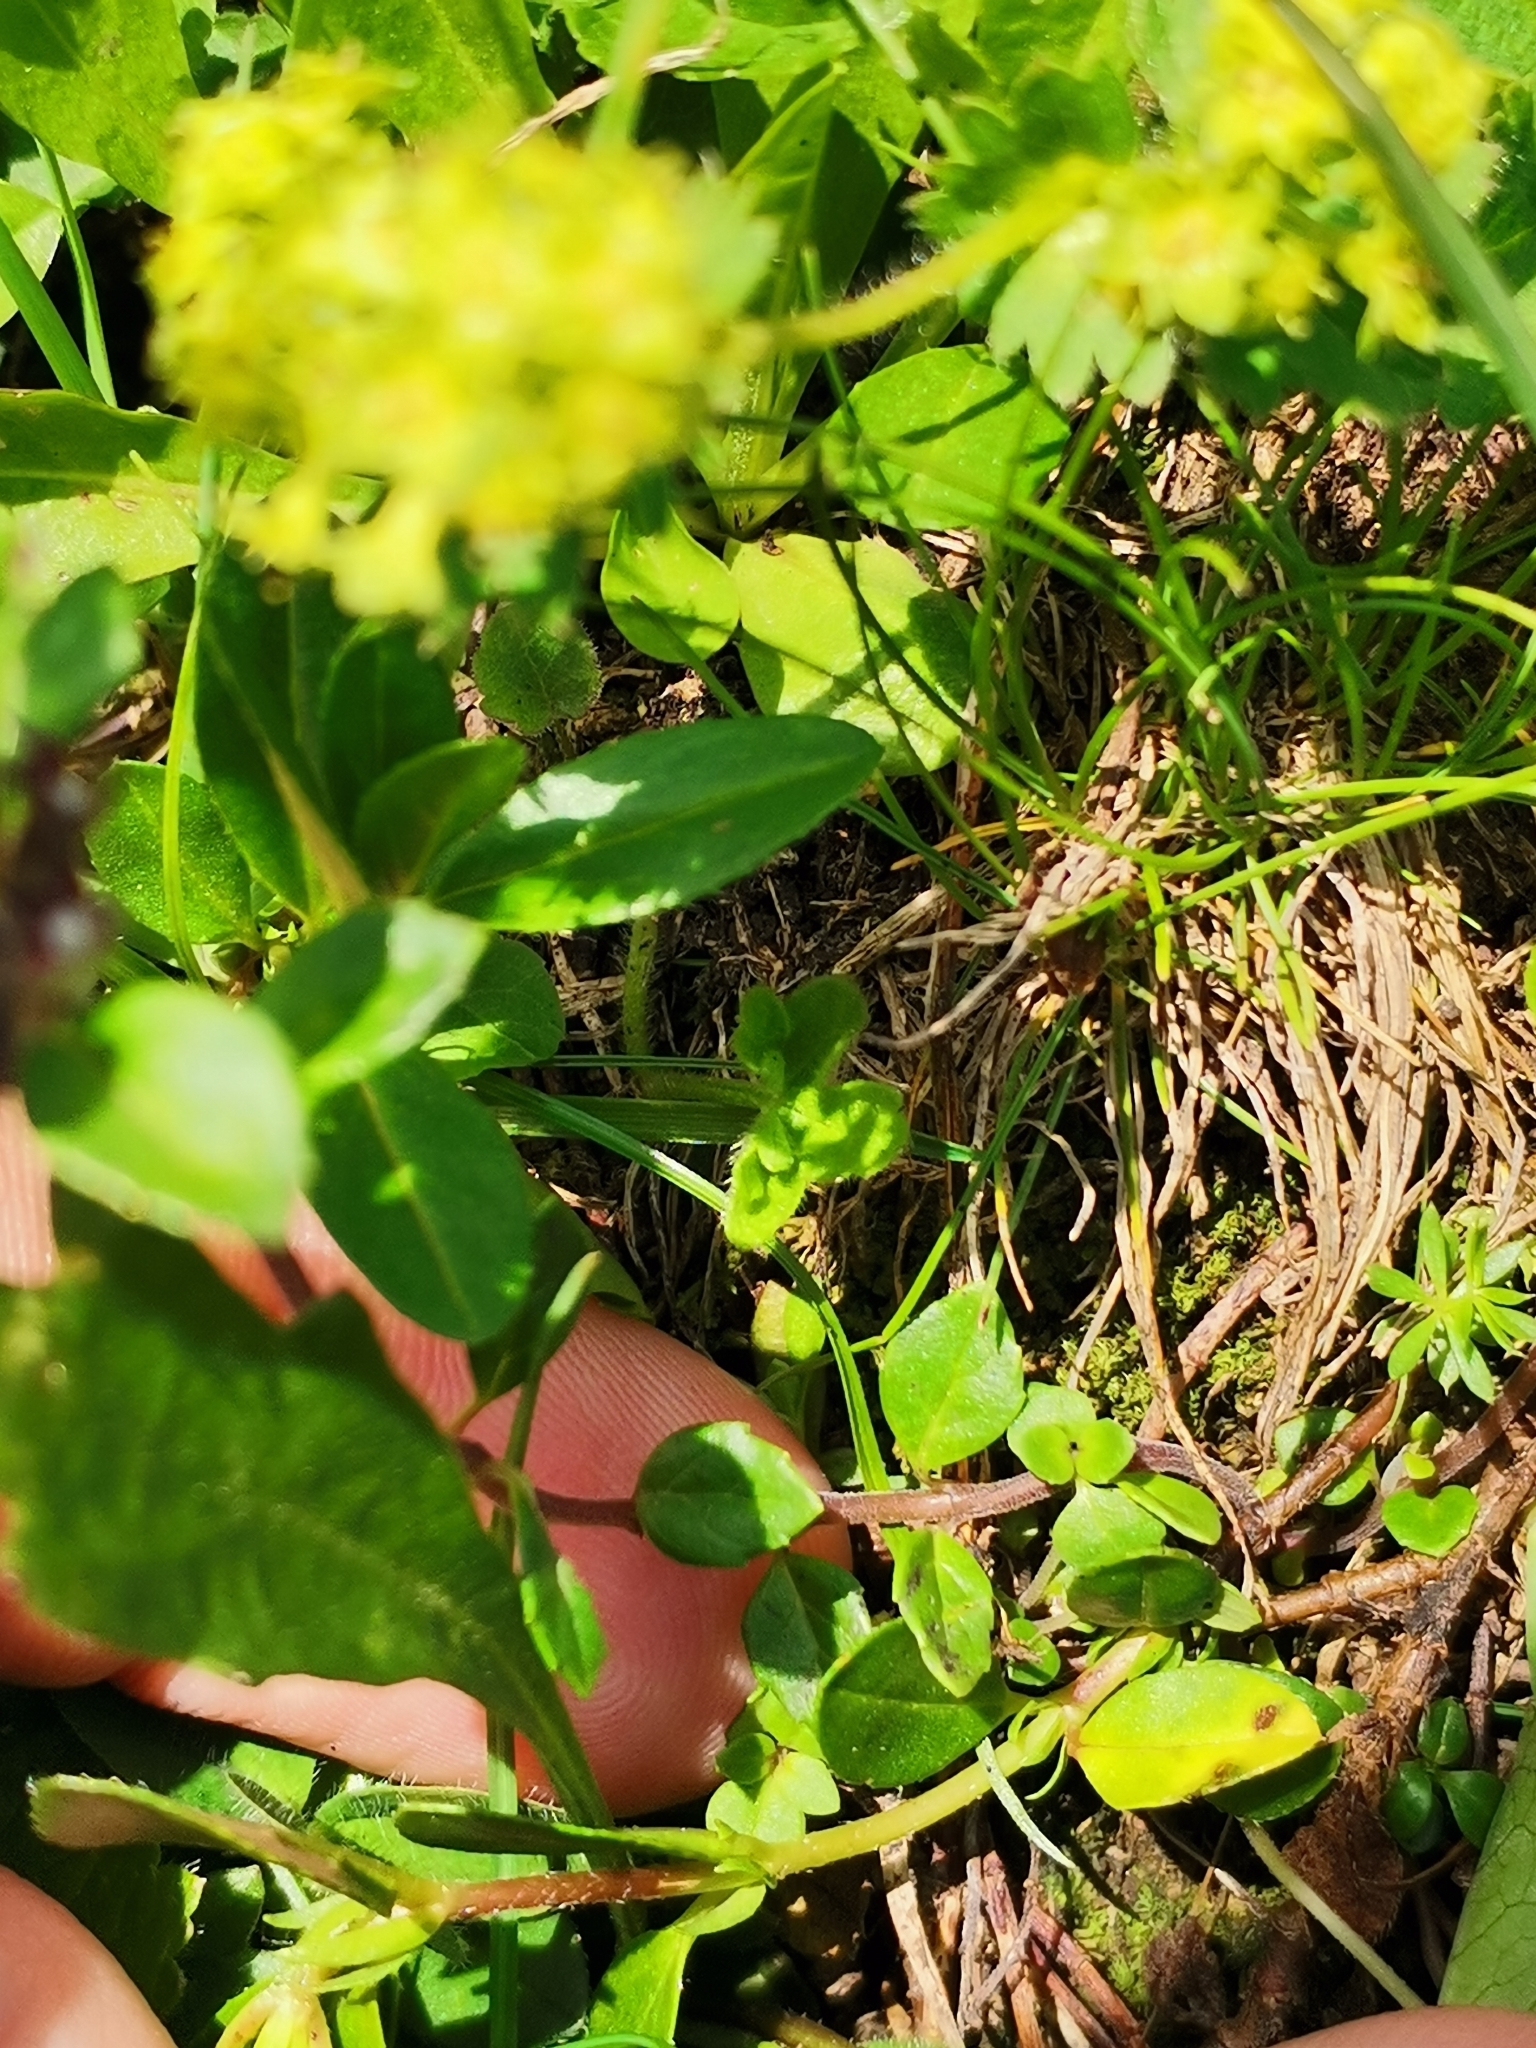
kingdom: Plantae
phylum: Tracheophyta
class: Magnoliopsida
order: Lamiales
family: Lamiaceae
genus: Clinopodium
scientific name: Clinopodium alpinum
